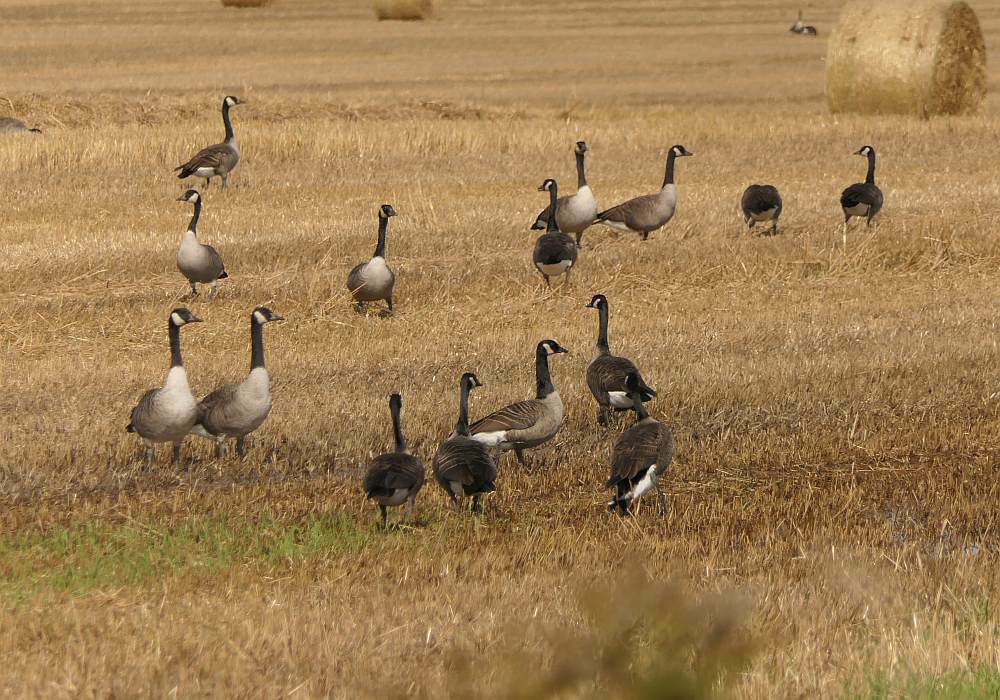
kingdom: Animalia
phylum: Chordata
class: Aves
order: Anseriformes
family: Anatidae
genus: Branta
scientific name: Branta canadensis
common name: Canada goose
